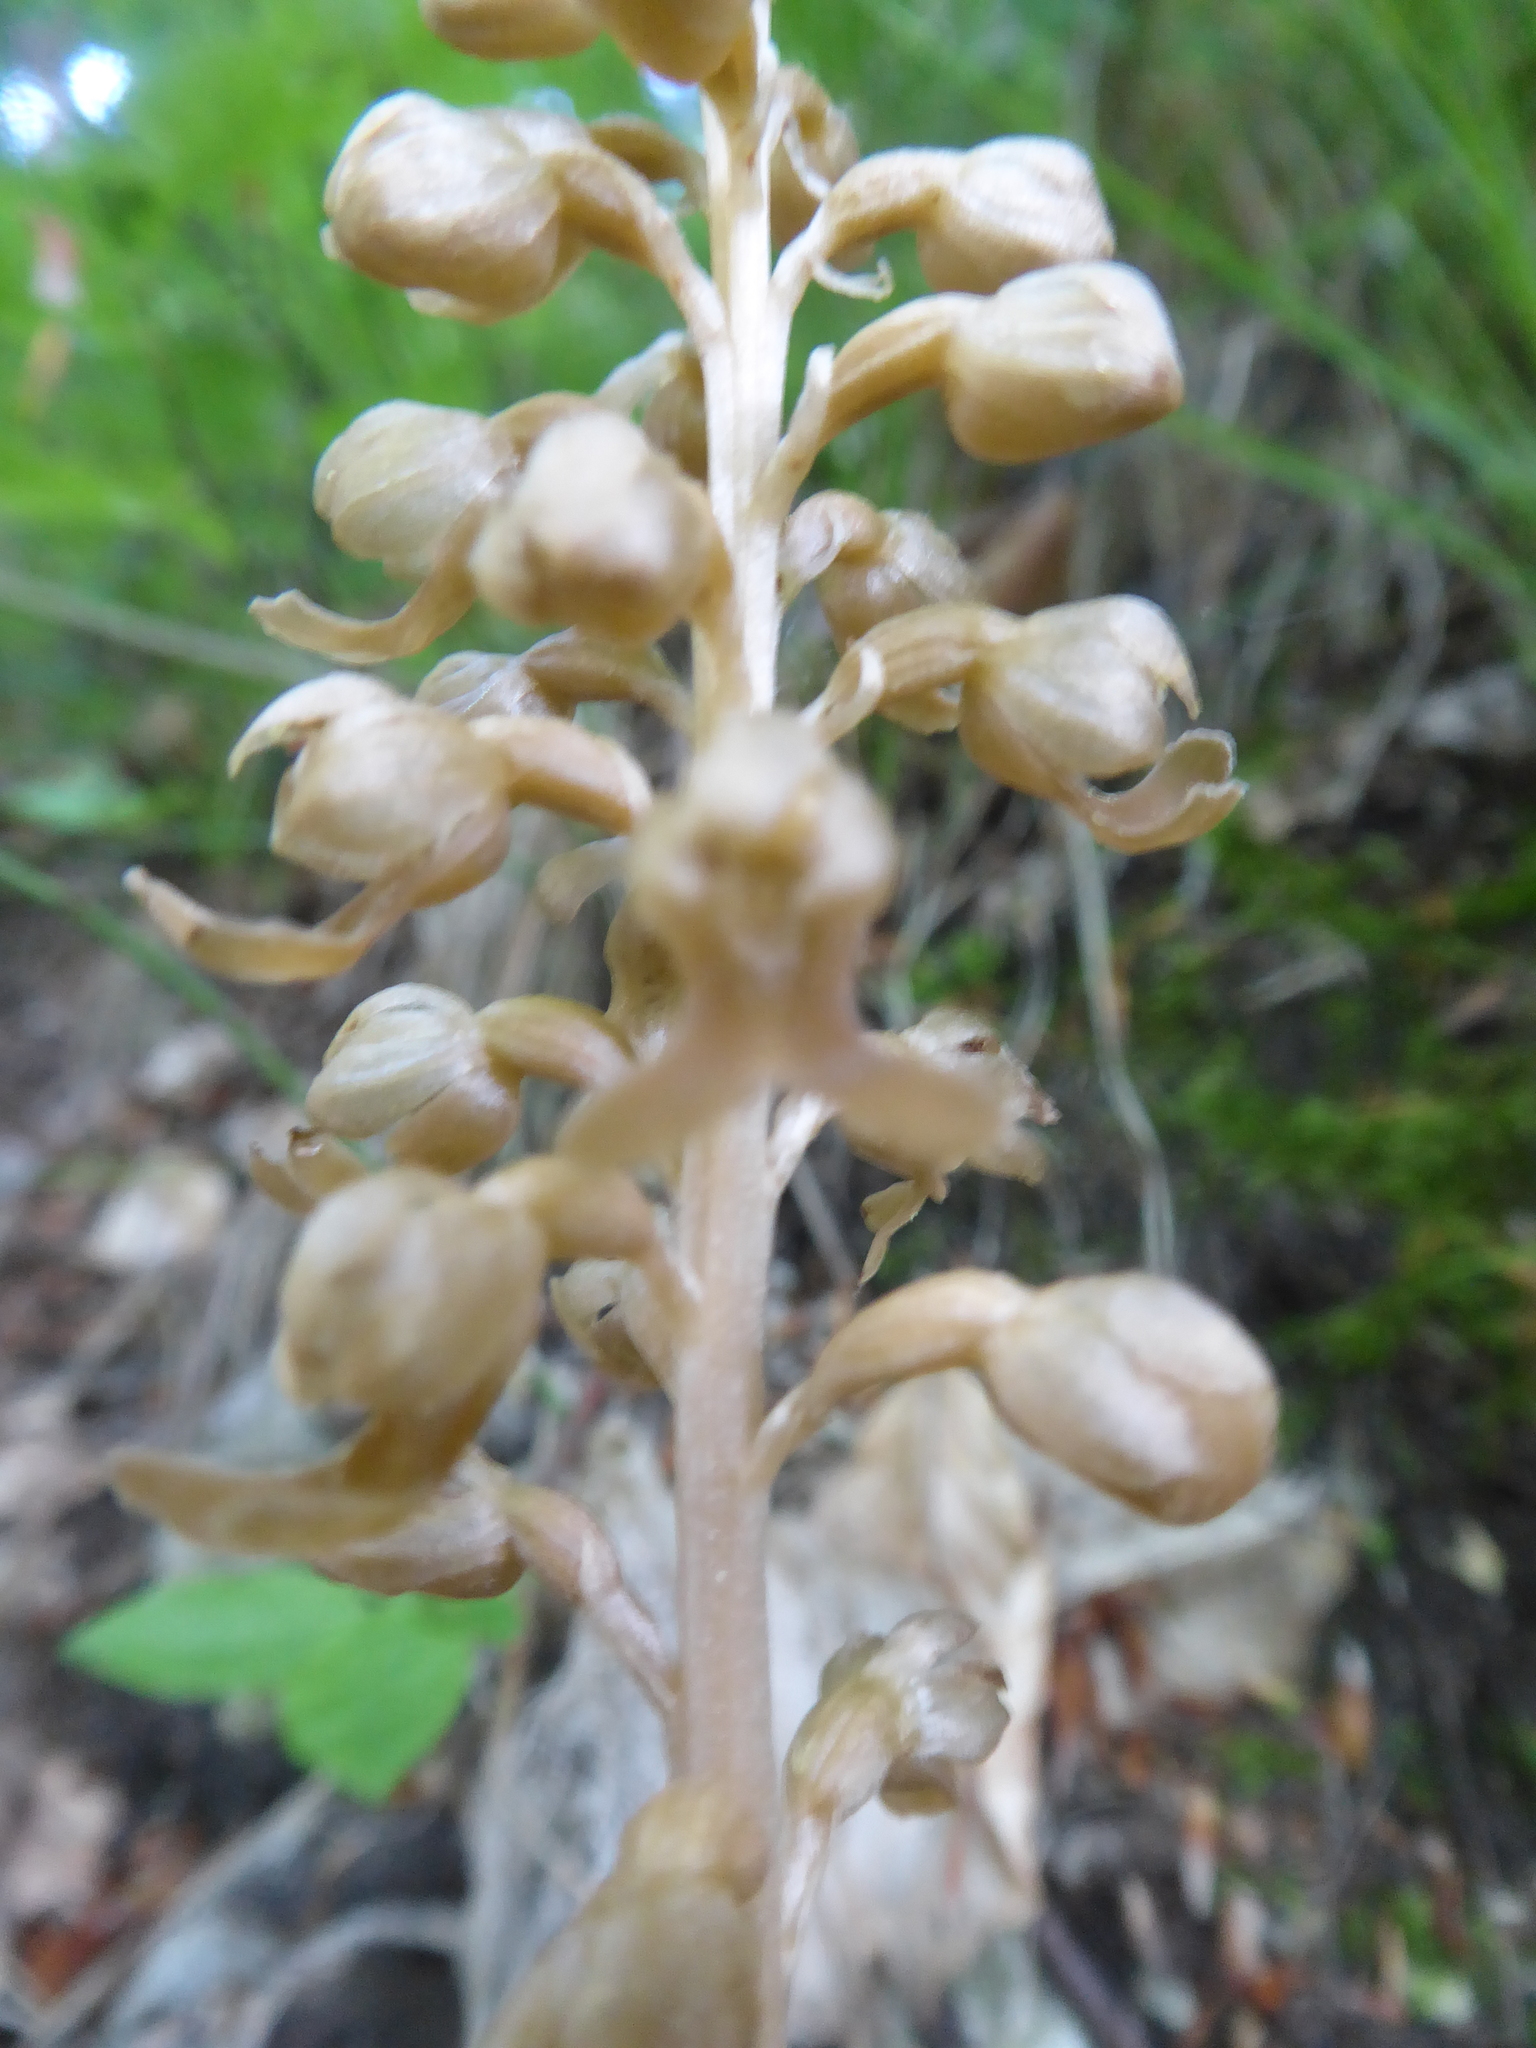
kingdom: Plantae
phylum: Tracheophyta
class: Liliopsida
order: Asparagales
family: Orchidaceae
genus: Neottia
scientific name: Neottia nidus-avis
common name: Bird's-nest orchid
